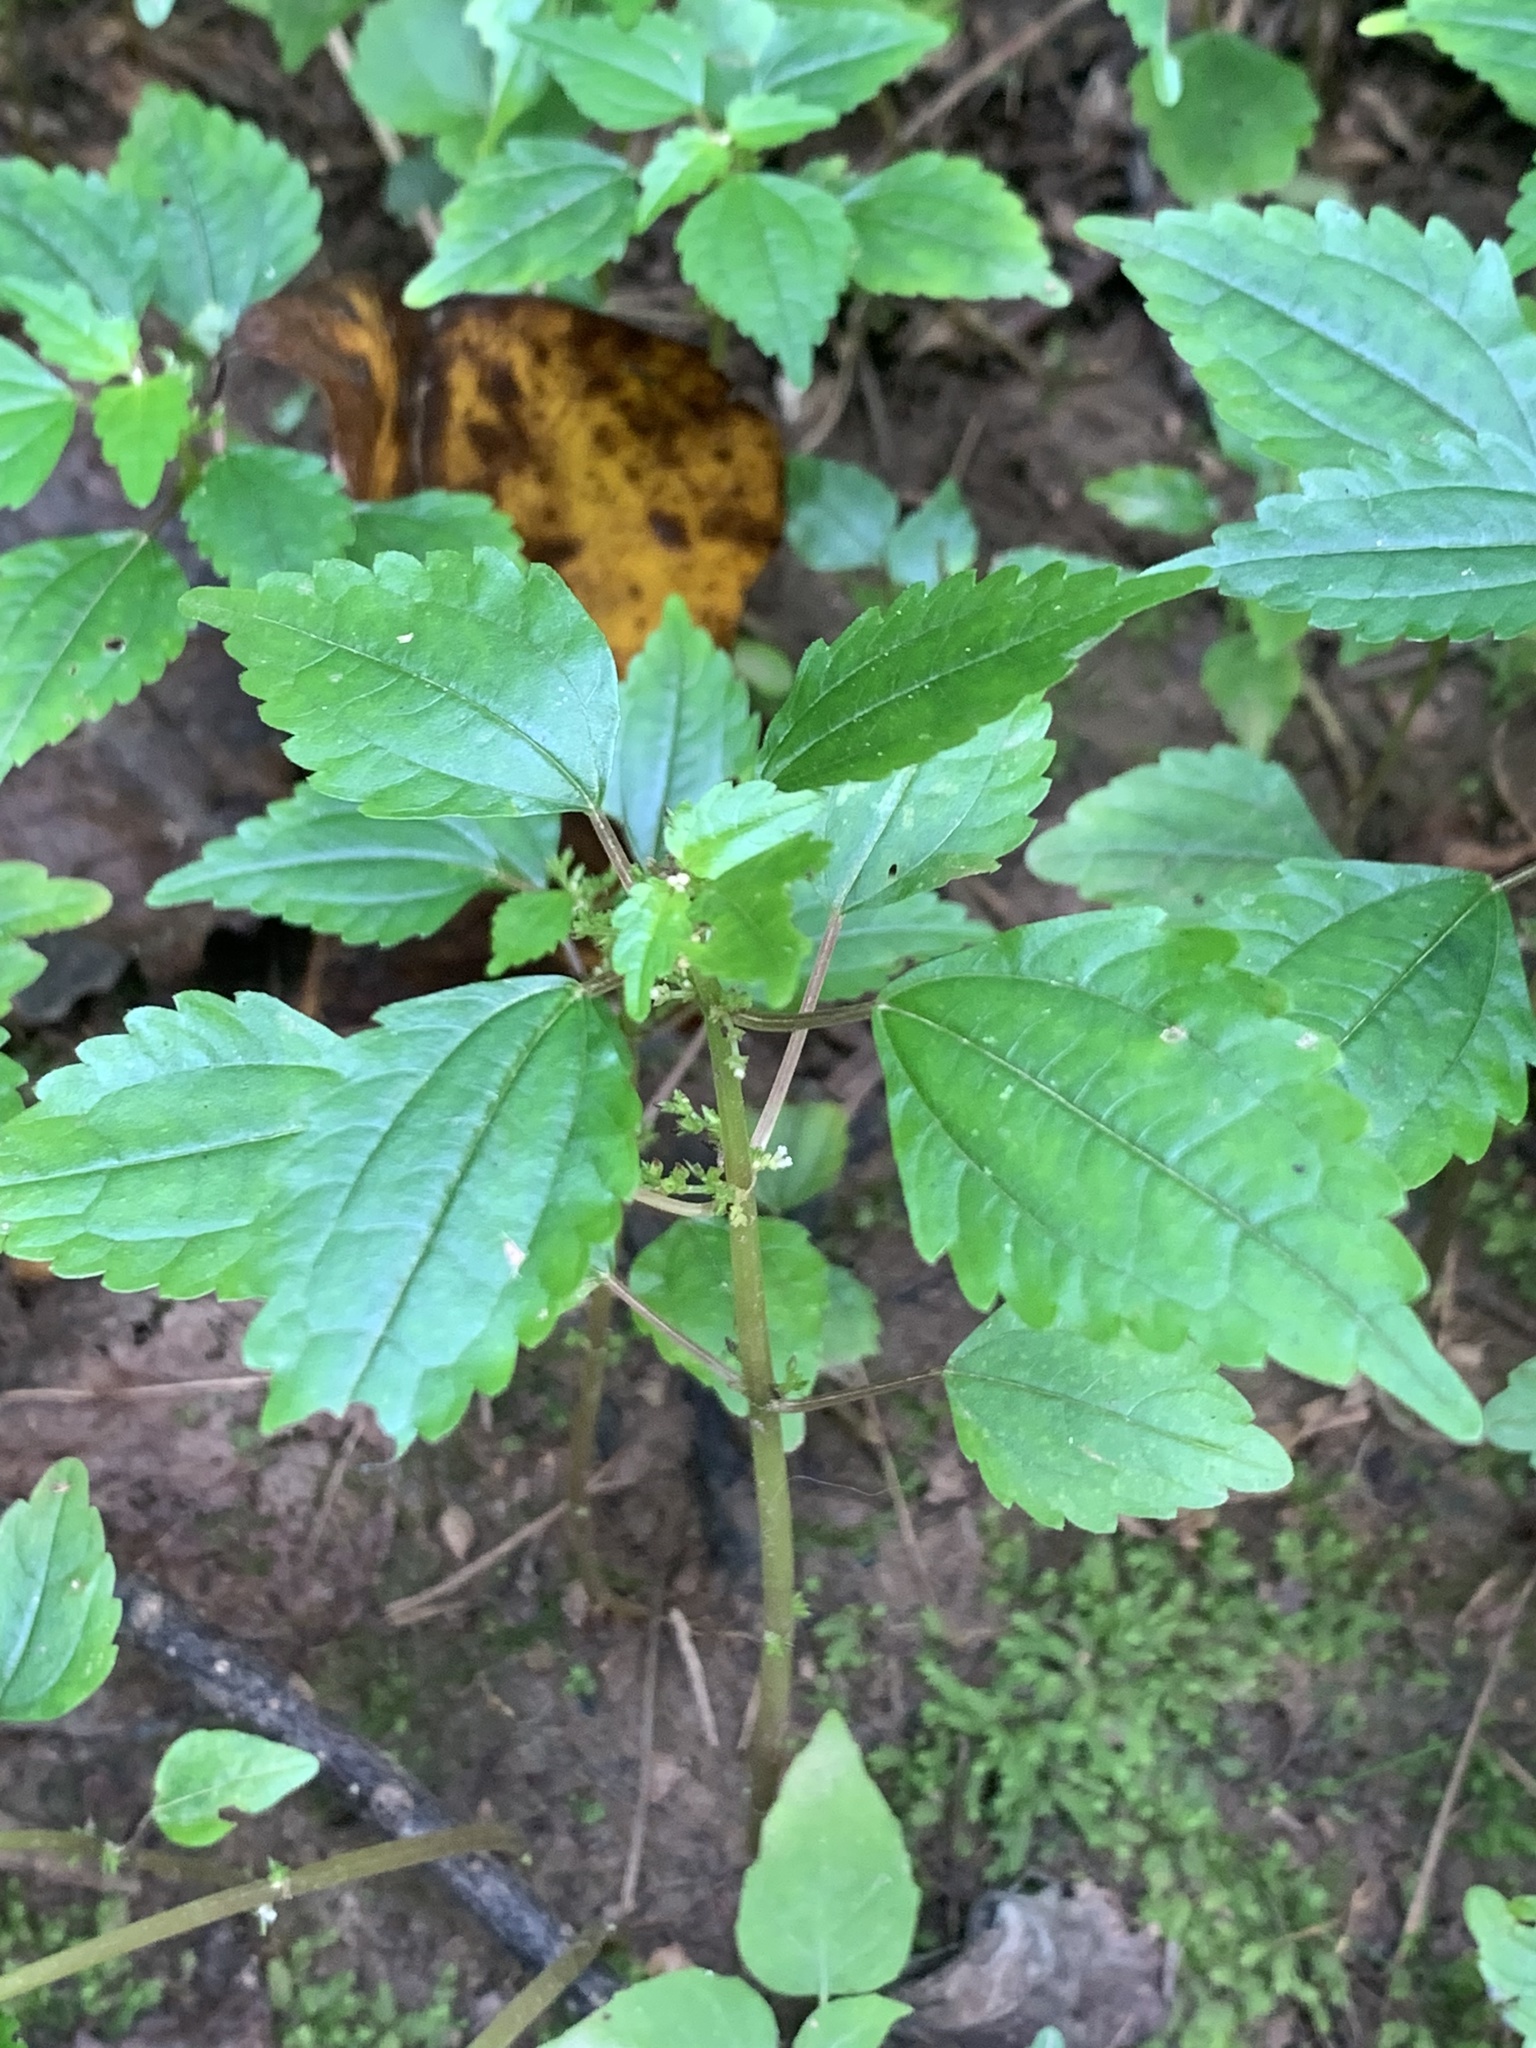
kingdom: Plantae
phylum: Tracheophyta
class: Magnoliopsida
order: Rosales
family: Urticaceae
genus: Pilea
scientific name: Pilea pumila
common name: Clearweed
